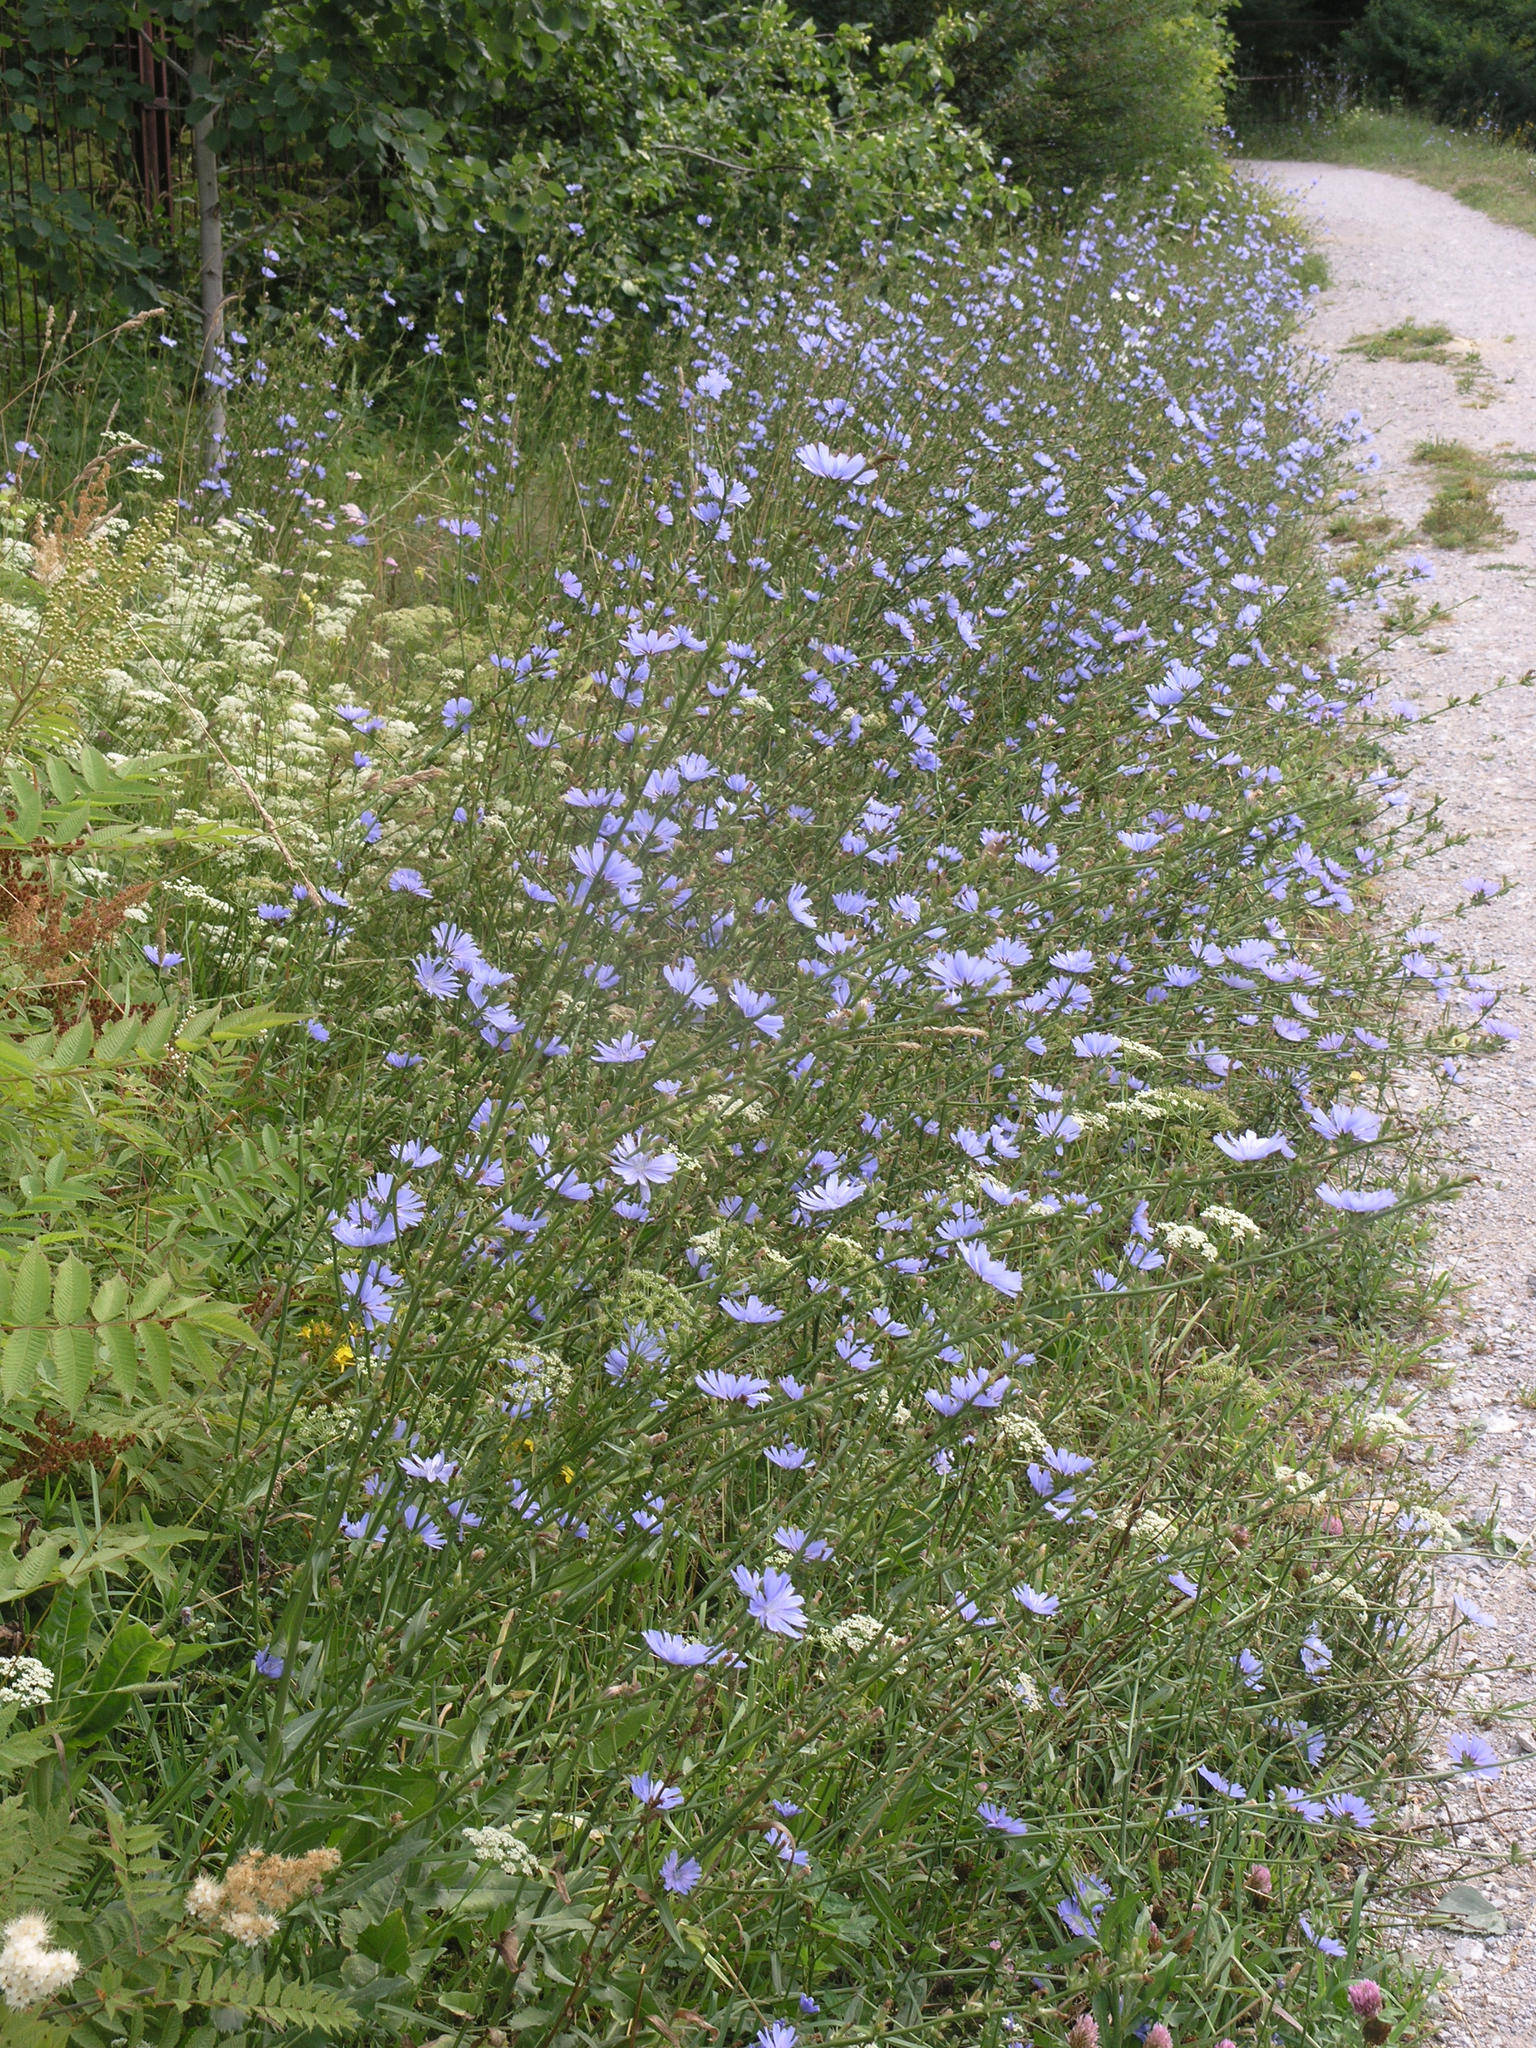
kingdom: Plantae
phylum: Tracheophyta
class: Magnoliopsida
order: Asterales
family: Asteraceae
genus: Cichorium
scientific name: Cichorium intybus
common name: Chicory
